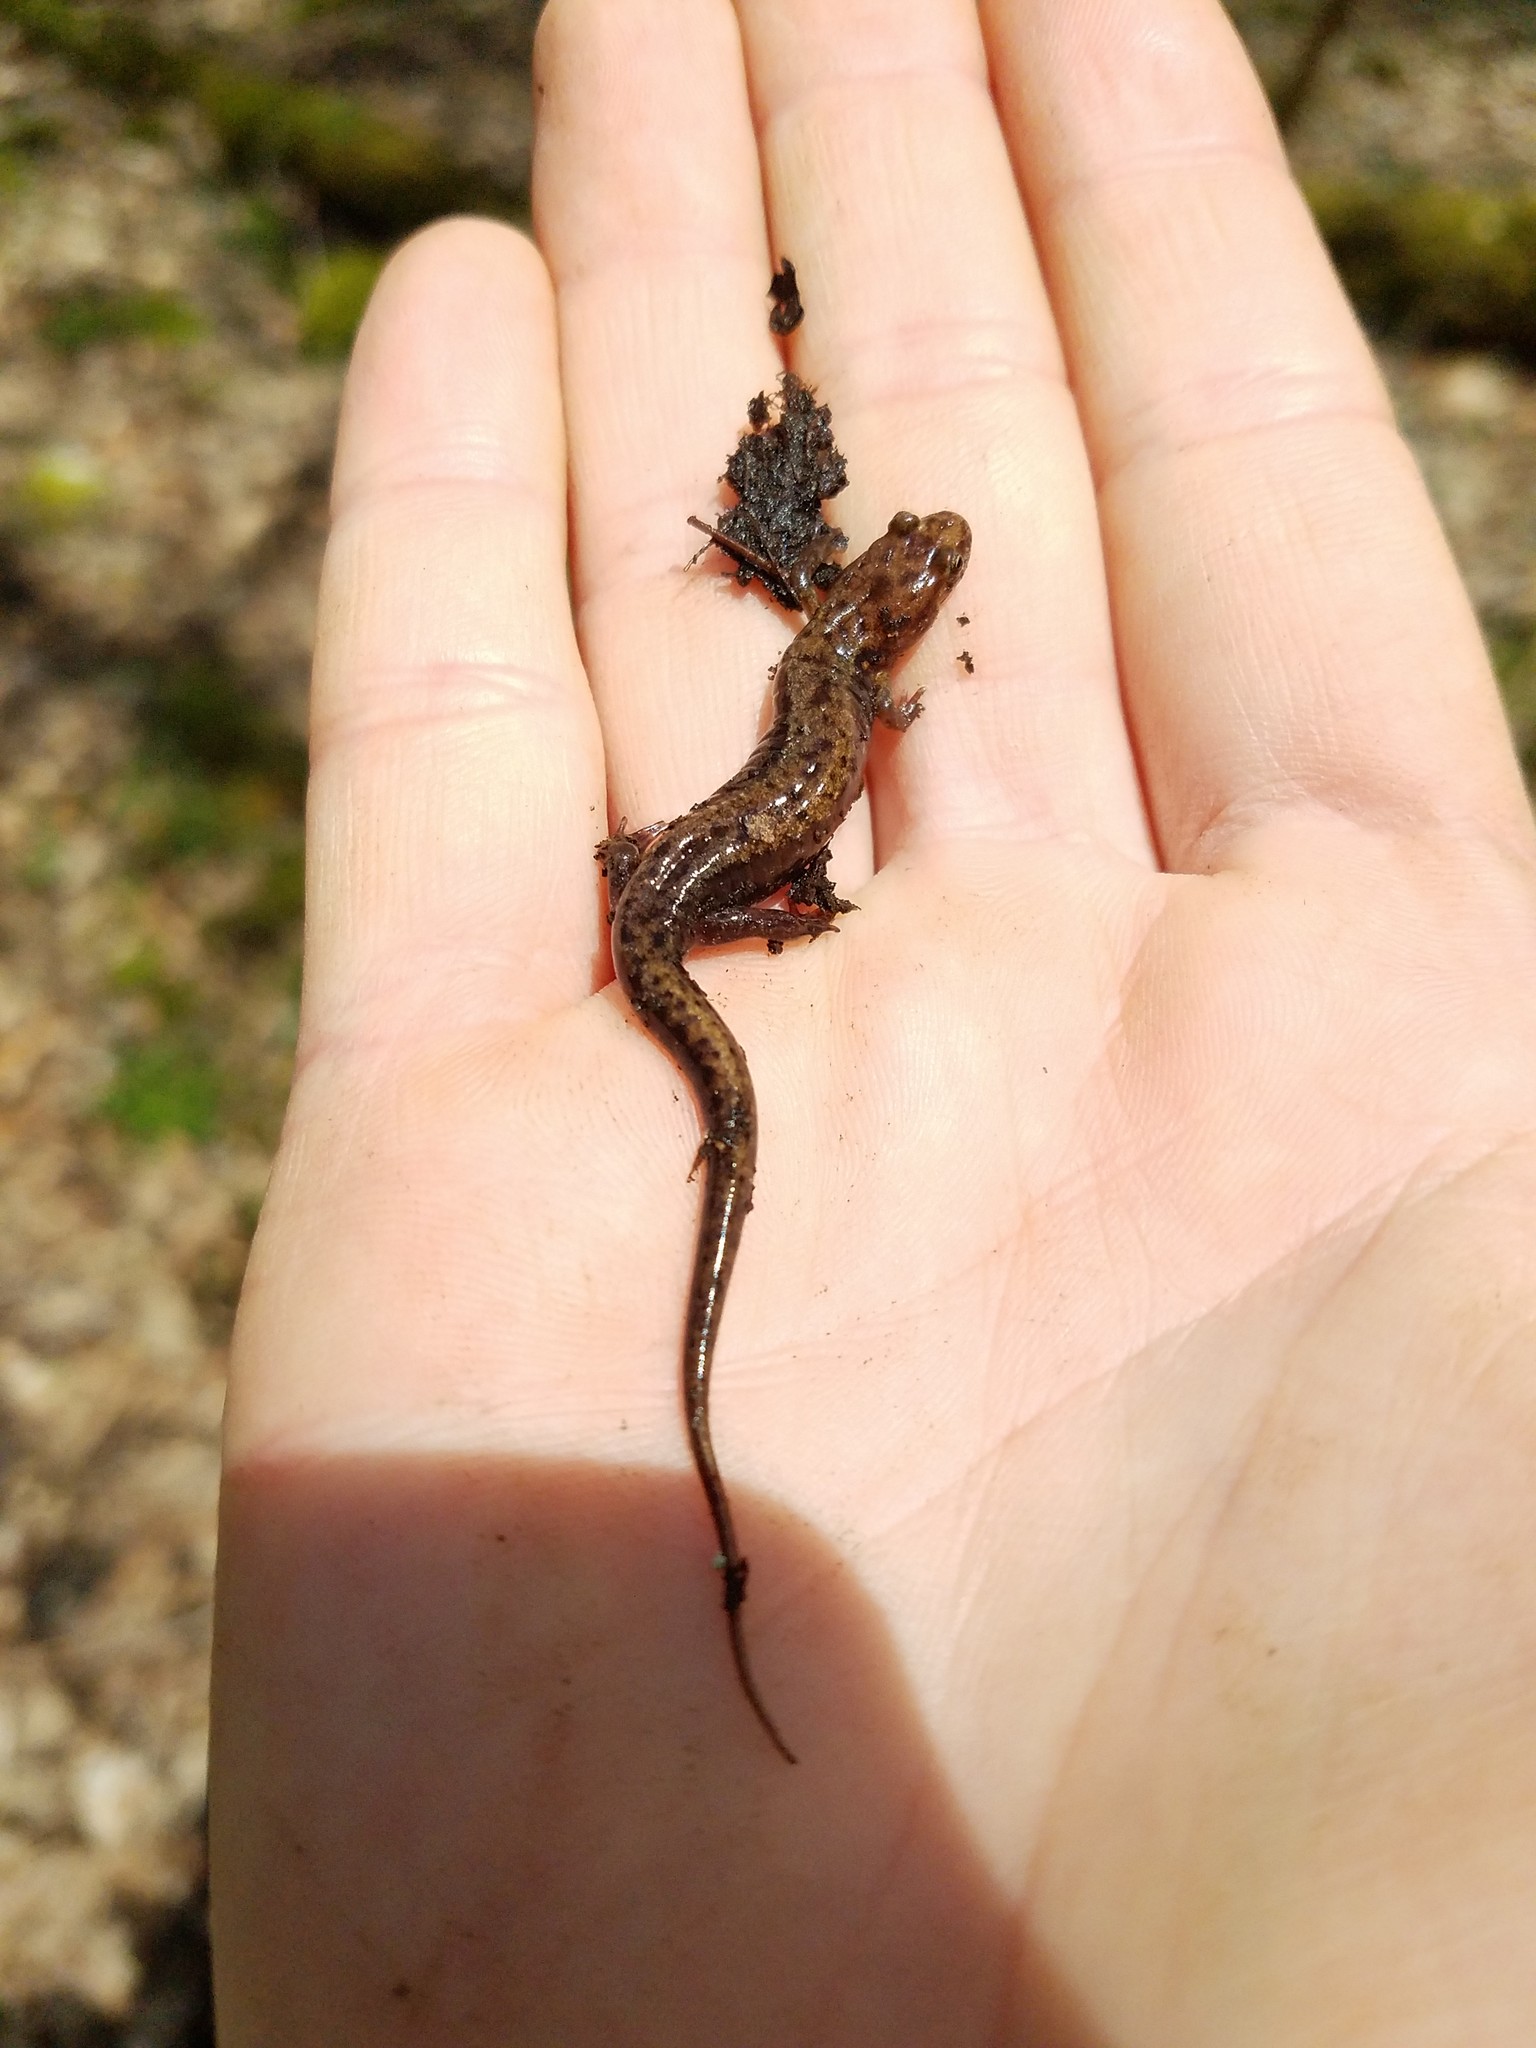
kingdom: Animalia
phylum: Chordata
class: Amphibia
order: Caudata
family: Plethodontidae
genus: Desmognathus
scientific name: Desmognathus ochrophaeus
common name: Allegheny mountain dusky salamander
